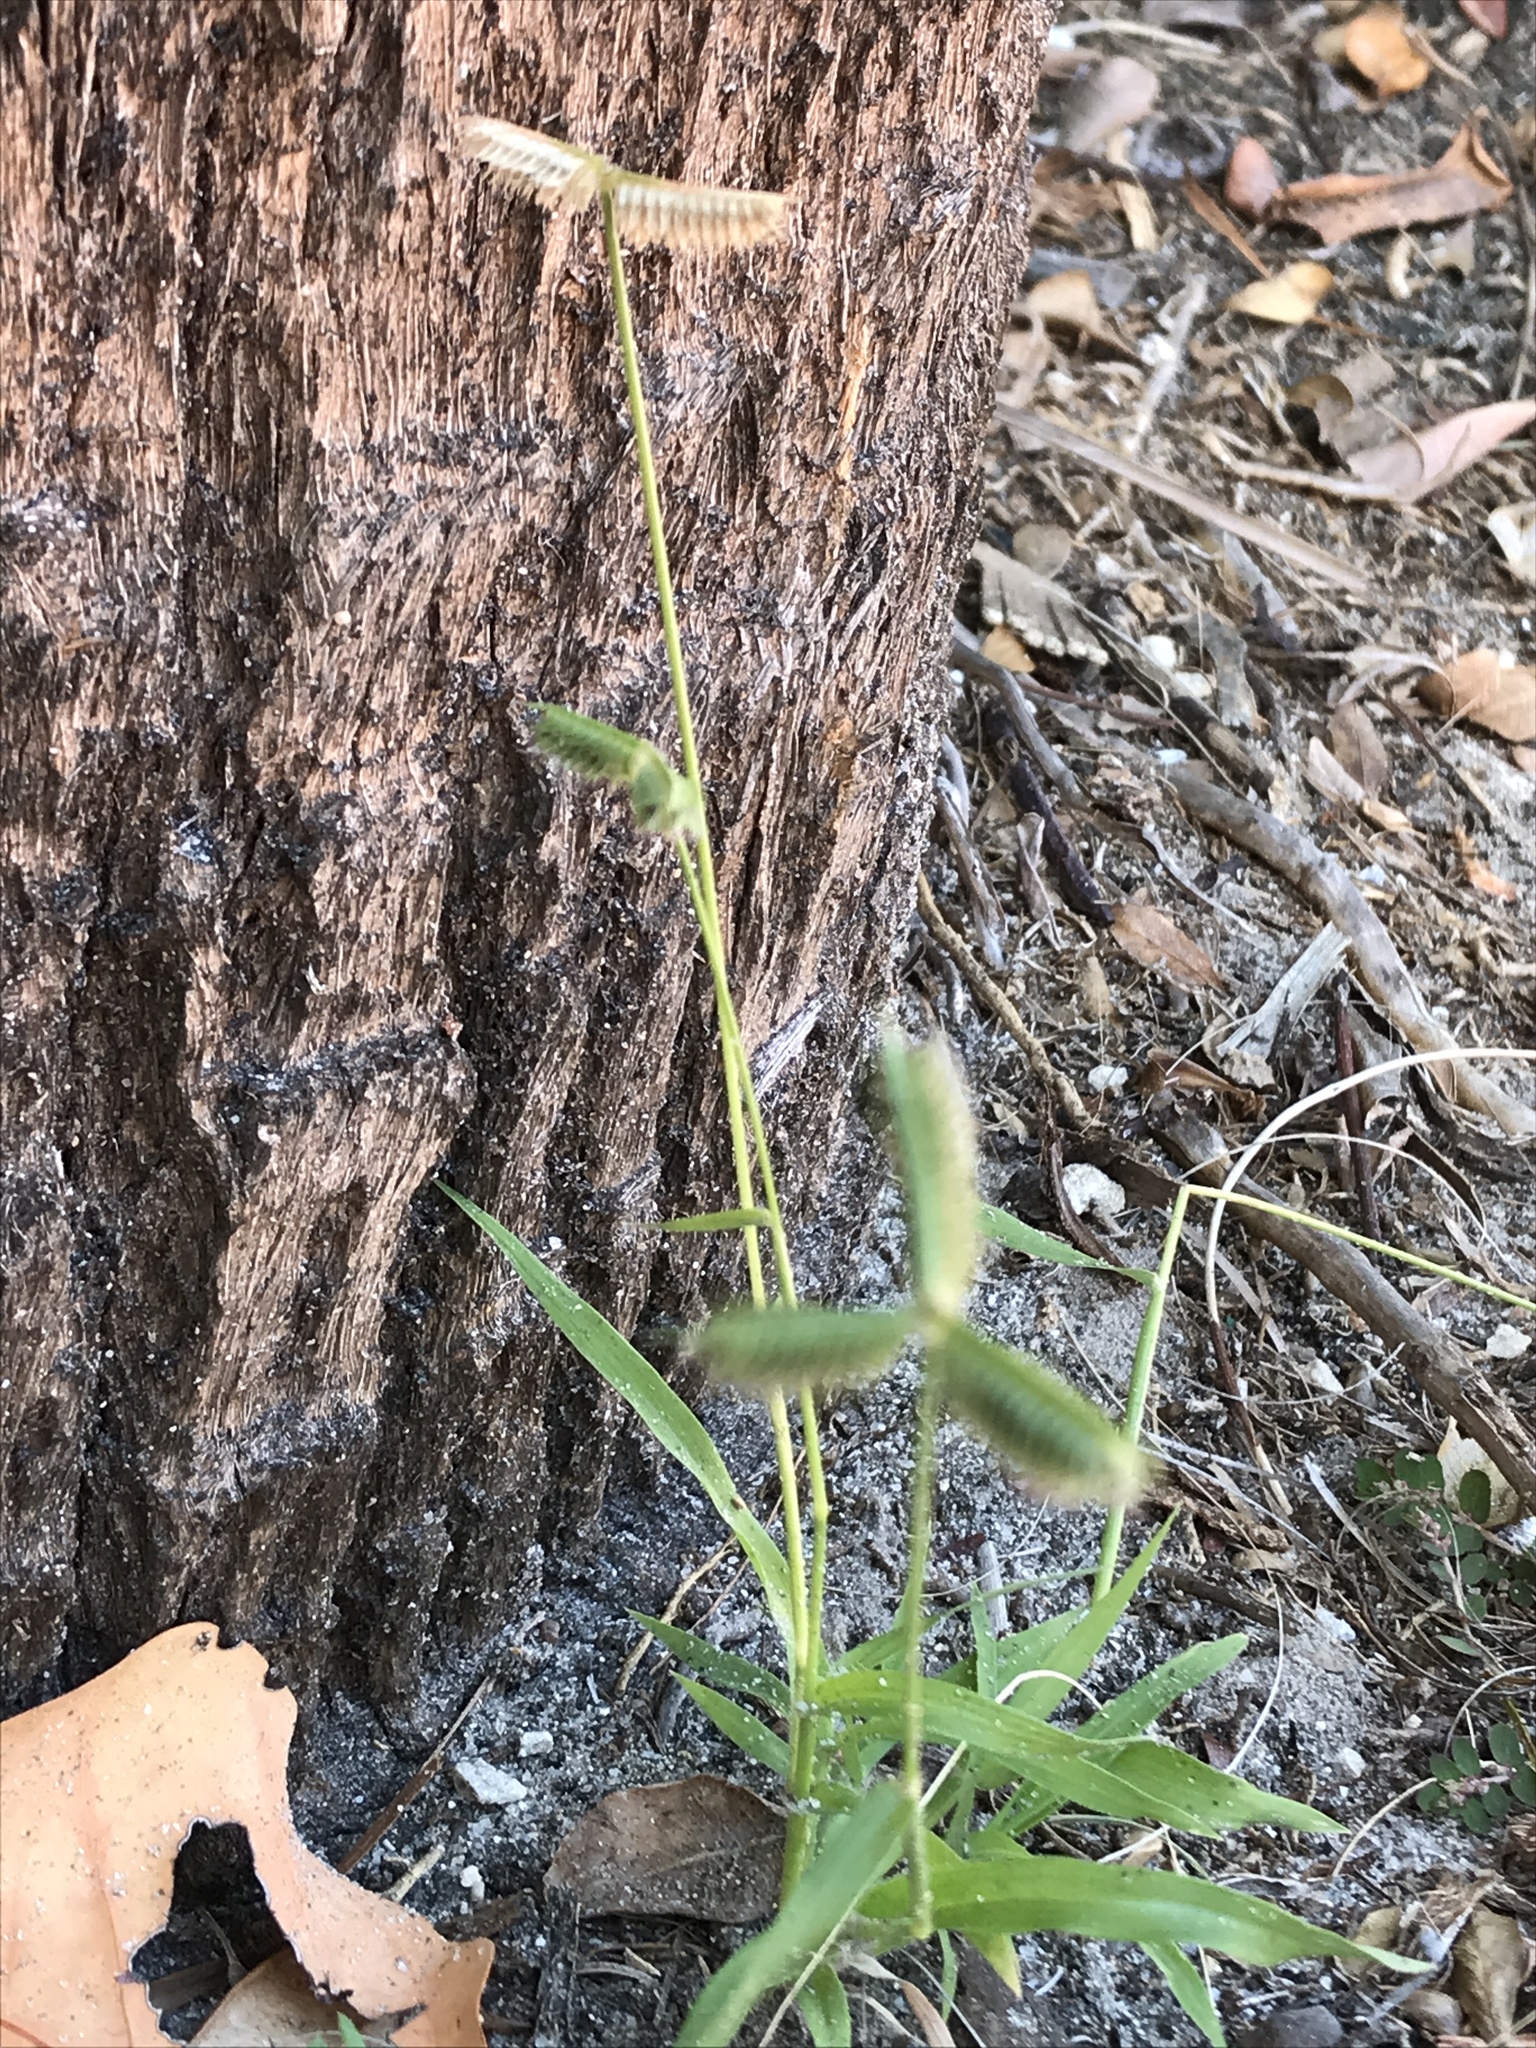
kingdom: Plantae
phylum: Tracheophyta
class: Liliopsida
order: Poales
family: Poaceae
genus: Dactyloctenium
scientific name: Dactyloctenium aegyptium
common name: Egyptian grass
